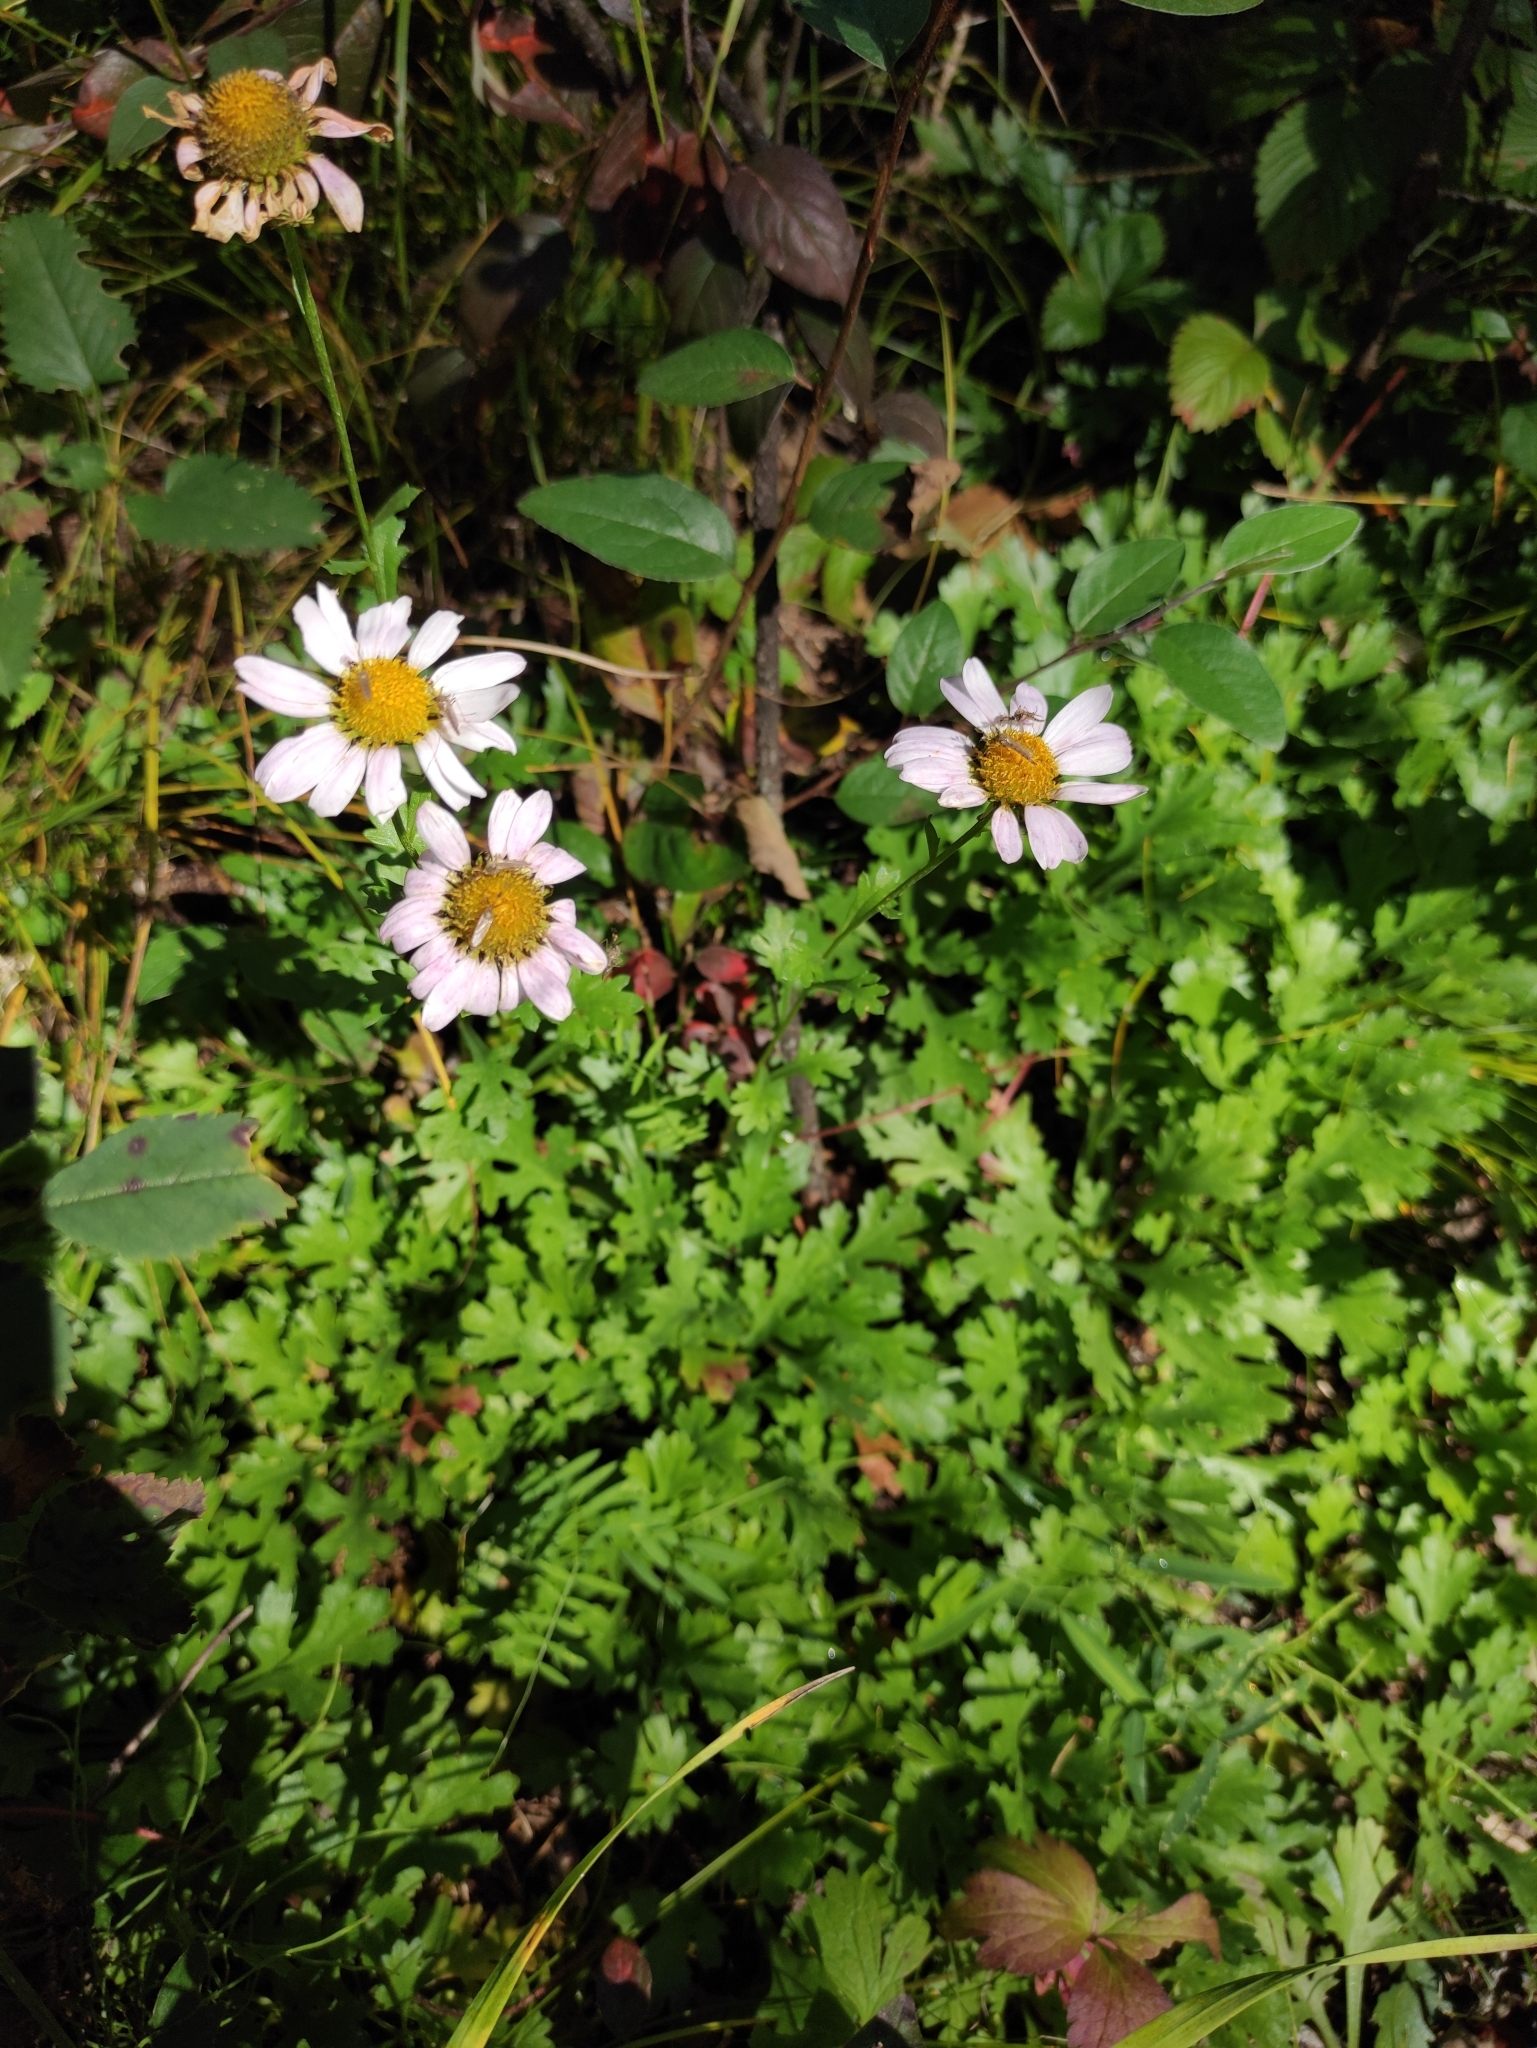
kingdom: Plantae
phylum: Tracheophyta
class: Magnoliopsida
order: Asterales
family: Asteraceae
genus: Chrysanthemum
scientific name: Chrysanthemum zawadzkii
